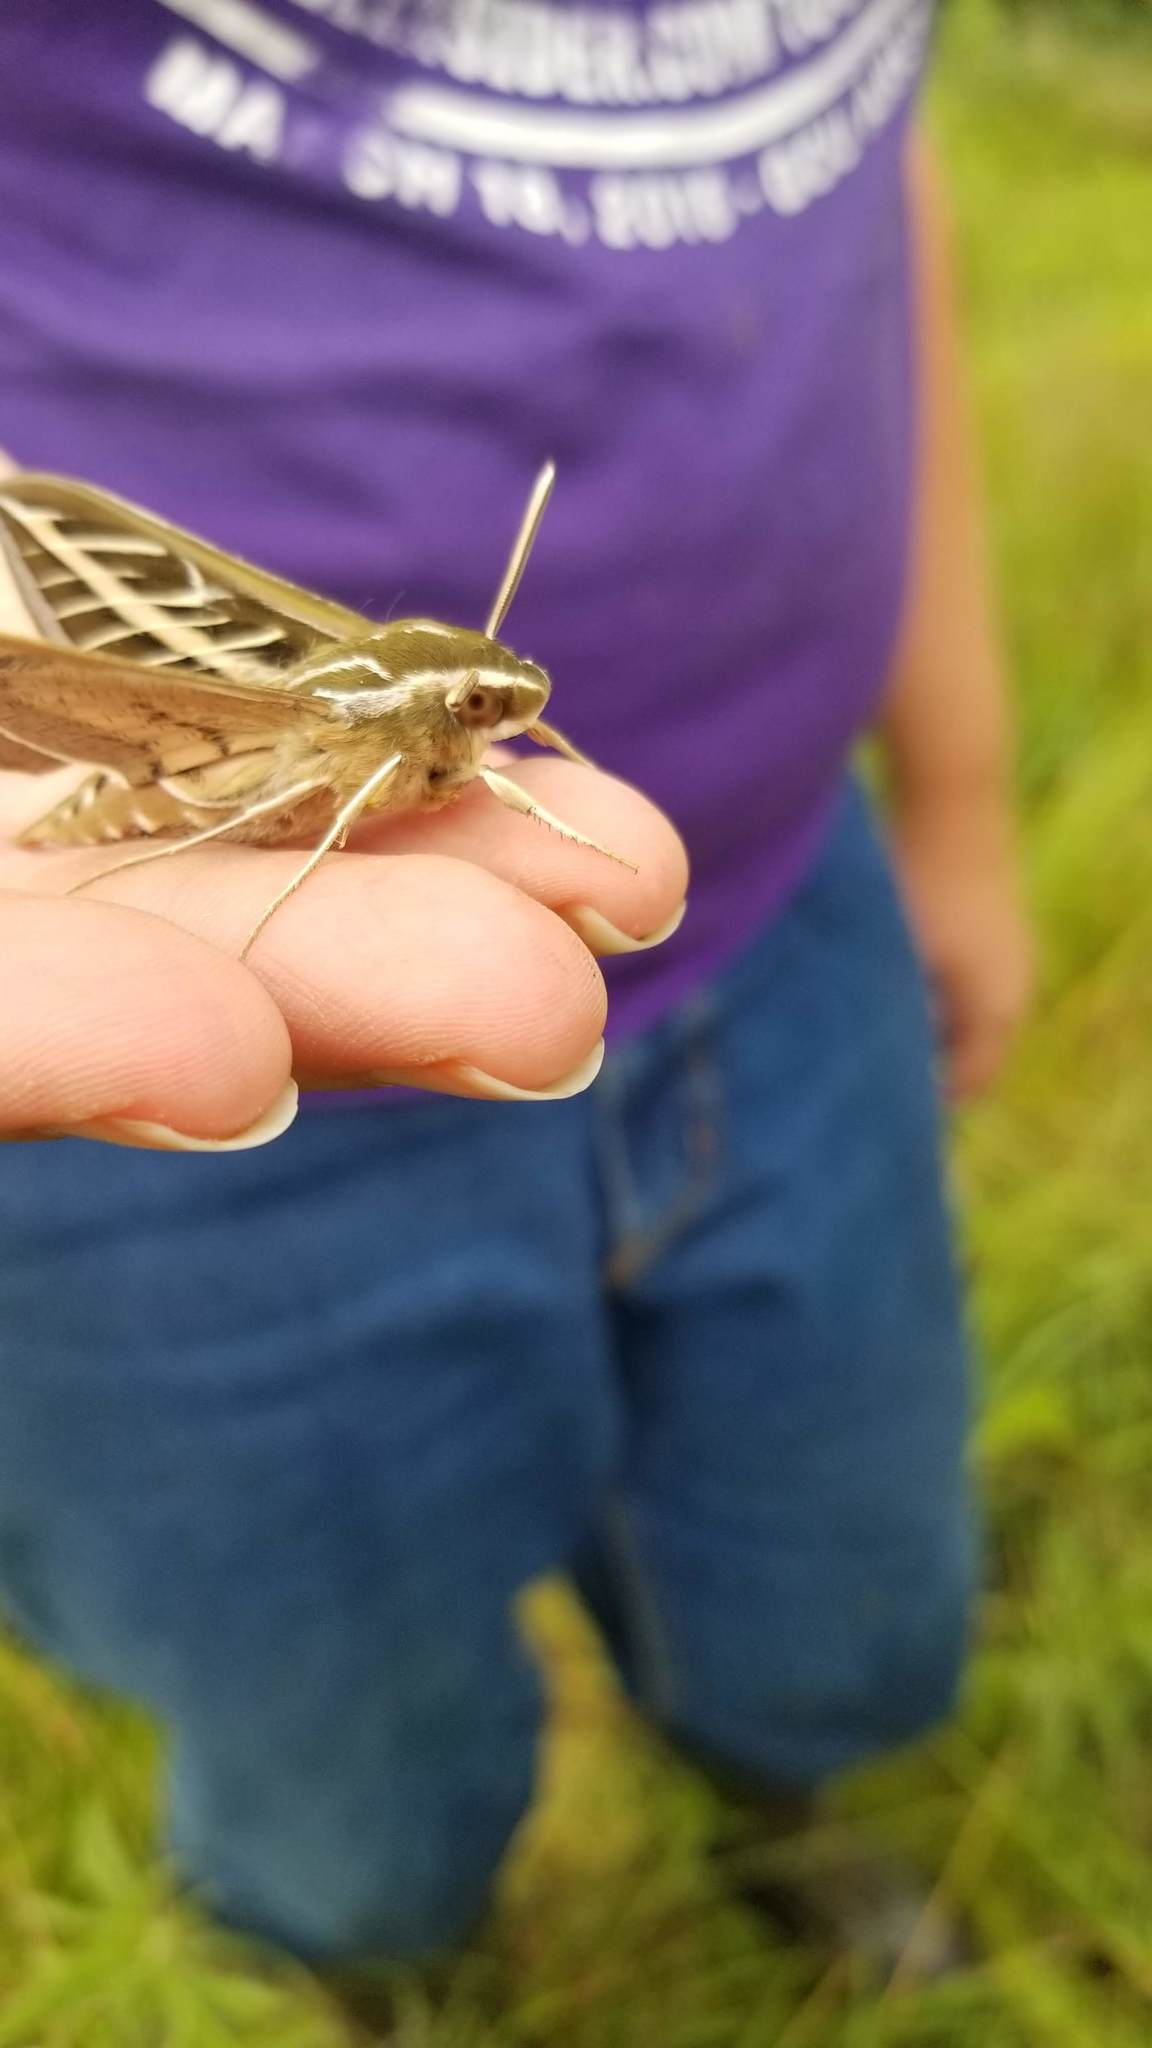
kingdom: Animalia
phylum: Arthropoda
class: Insecta
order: Lepidoptera
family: Sphingidae
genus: Hyles
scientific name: Hyles lineata
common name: White-lined sphinx
